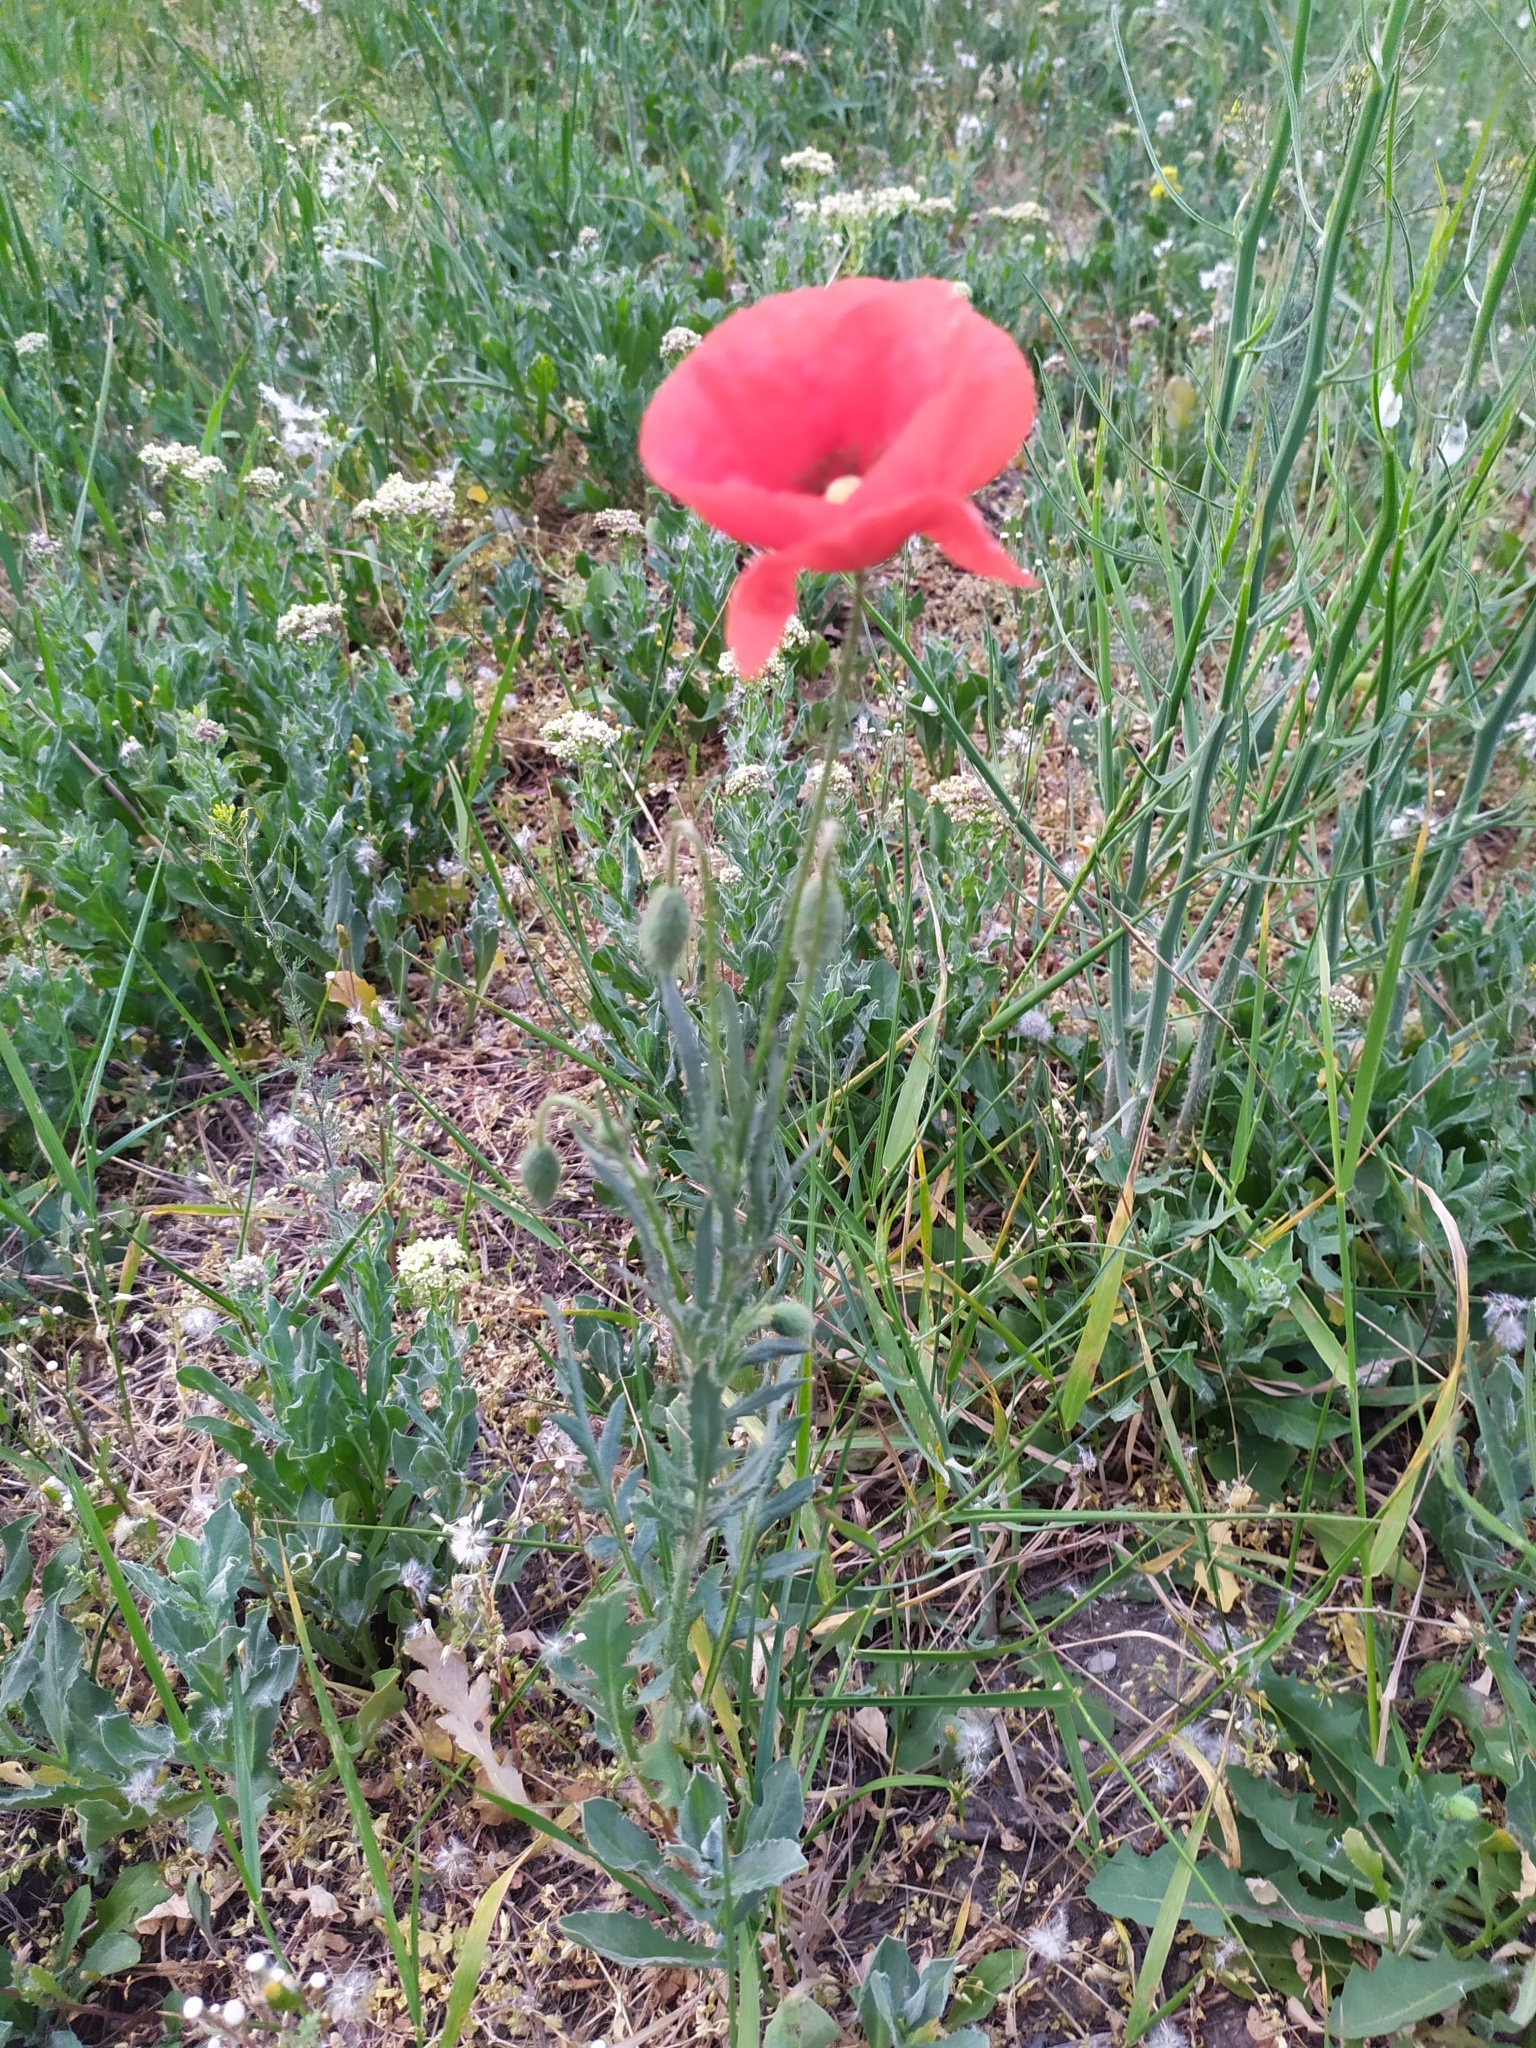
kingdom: Plantae
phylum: Tracheophyta
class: Magnoliopsida
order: Ranunculales
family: Papaveraceae
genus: Papaver
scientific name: Papaver rhoeas
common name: Corn poppy
